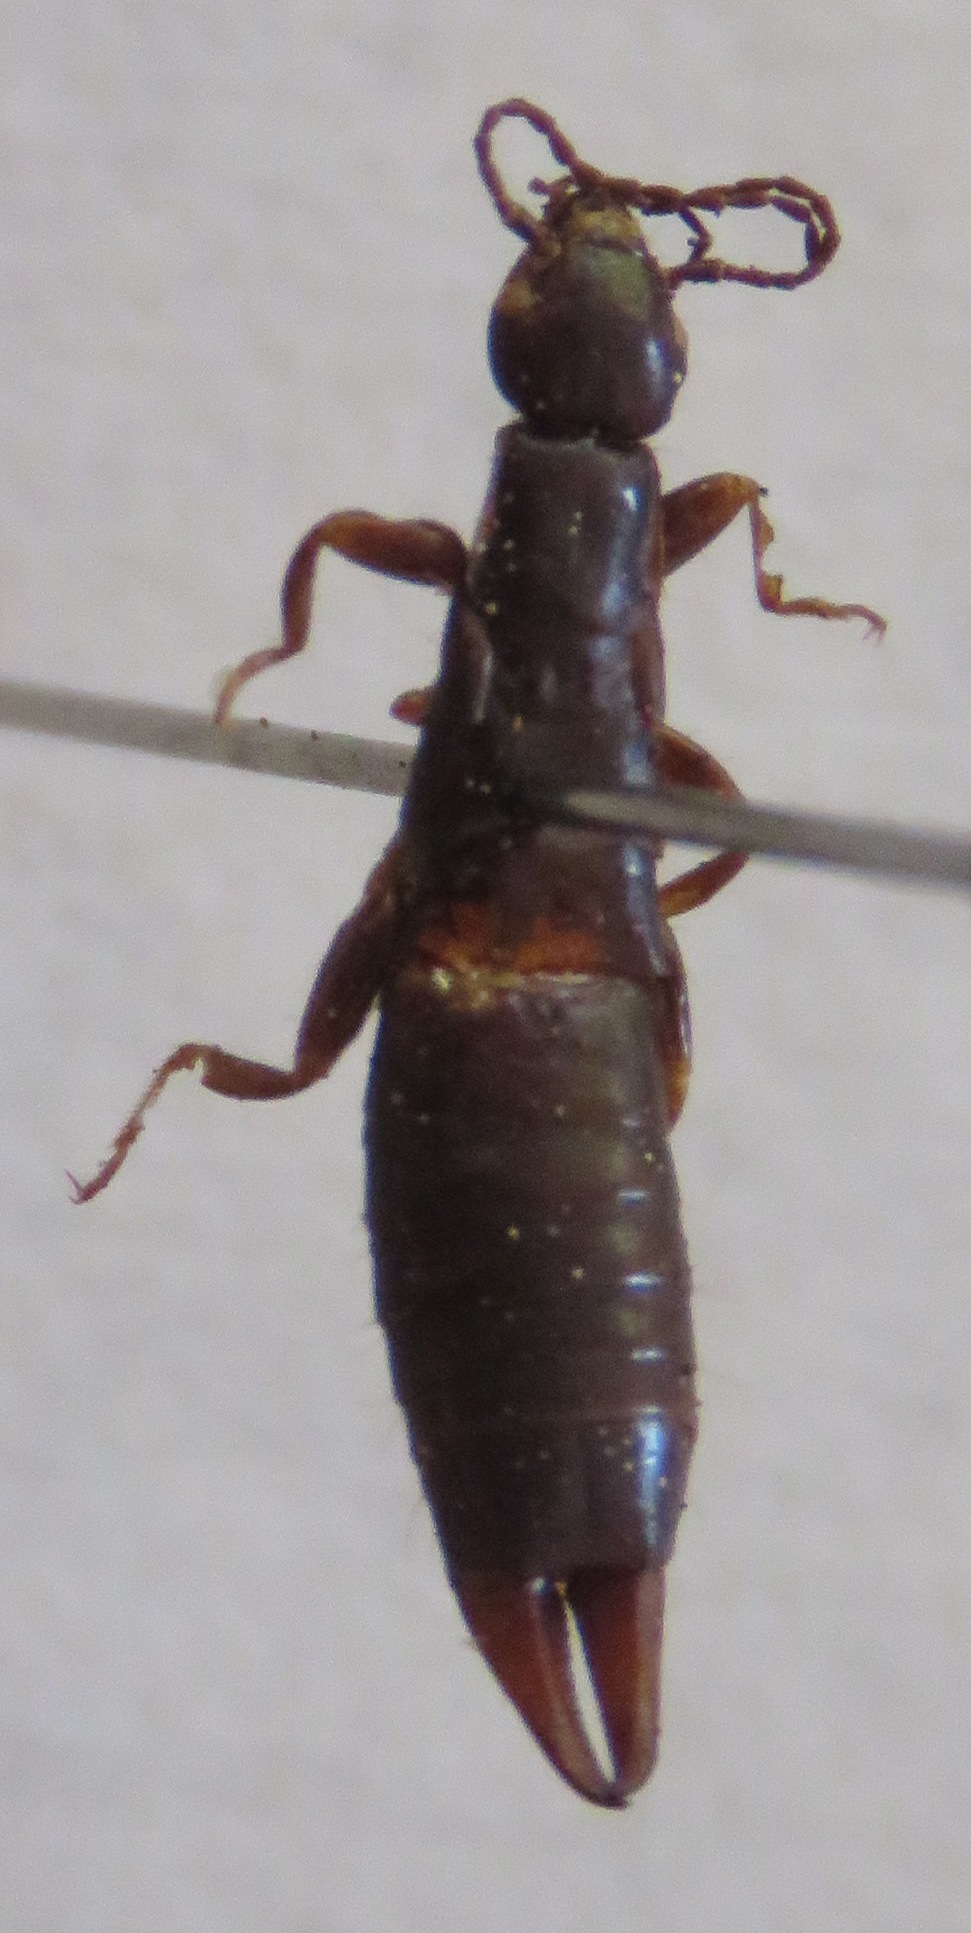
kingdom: Animalia
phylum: Arthropoda
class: Insecta
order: Dermaptera
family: Anisolabididae
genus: Euborellia
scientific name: Euborellia moesta
